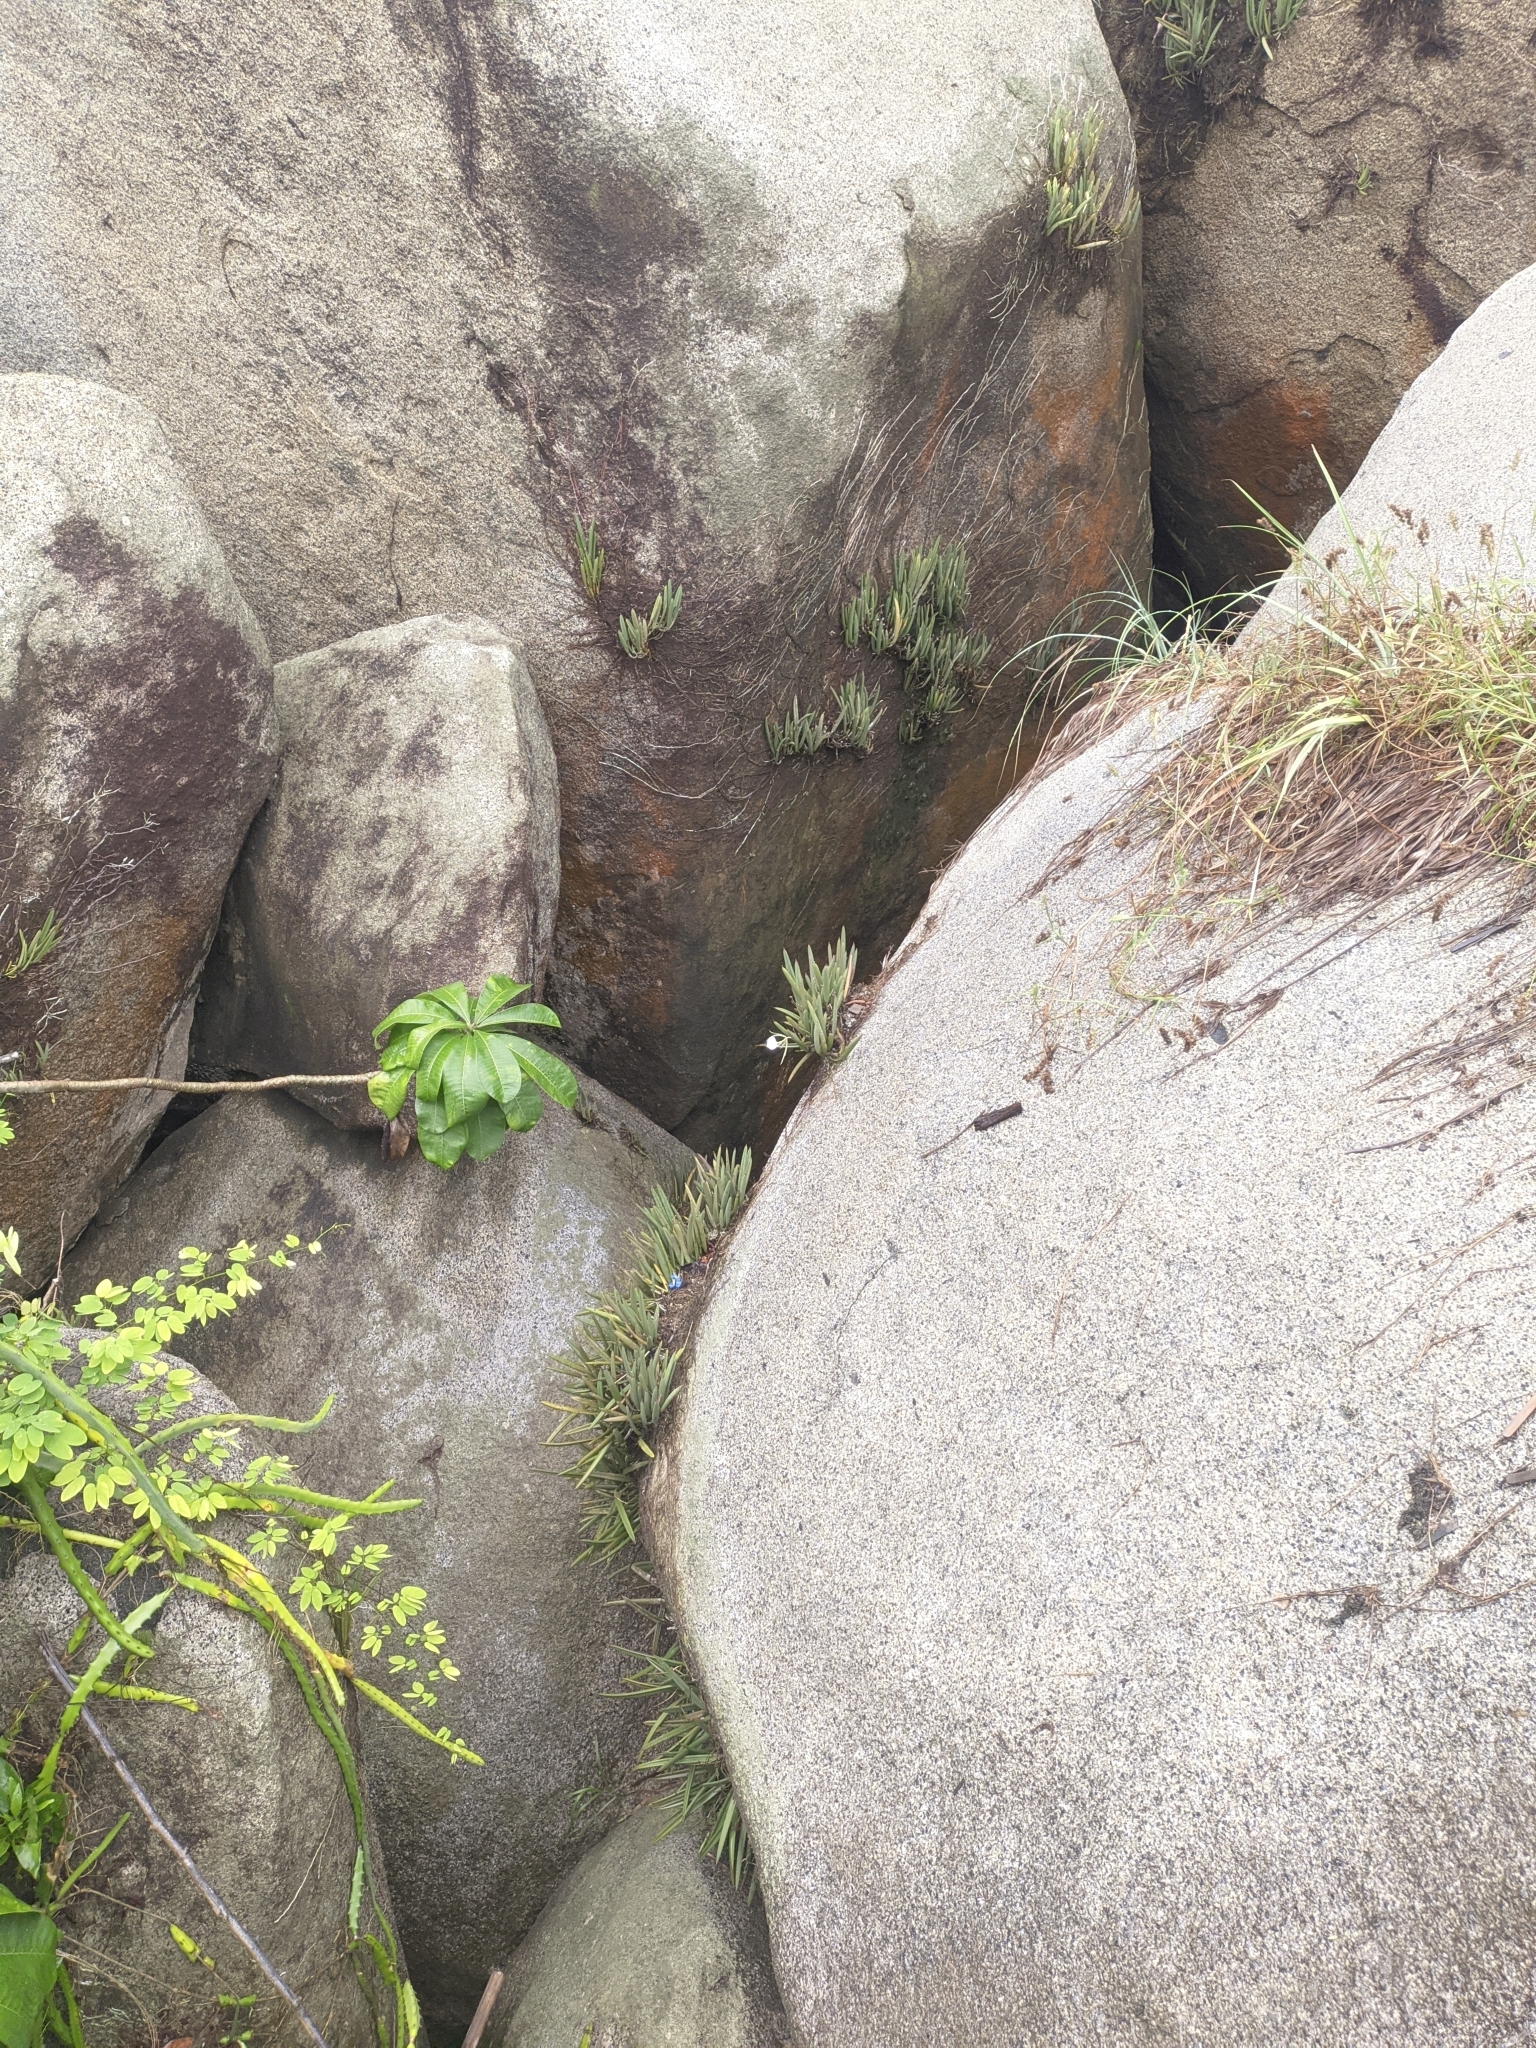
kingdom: Plantae
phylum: Tracheophyta
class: Liliopsida
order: Asparagales
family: Orchidaceae
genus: Brassavola
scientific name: Brassavola nodosa
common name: Lady of the night
